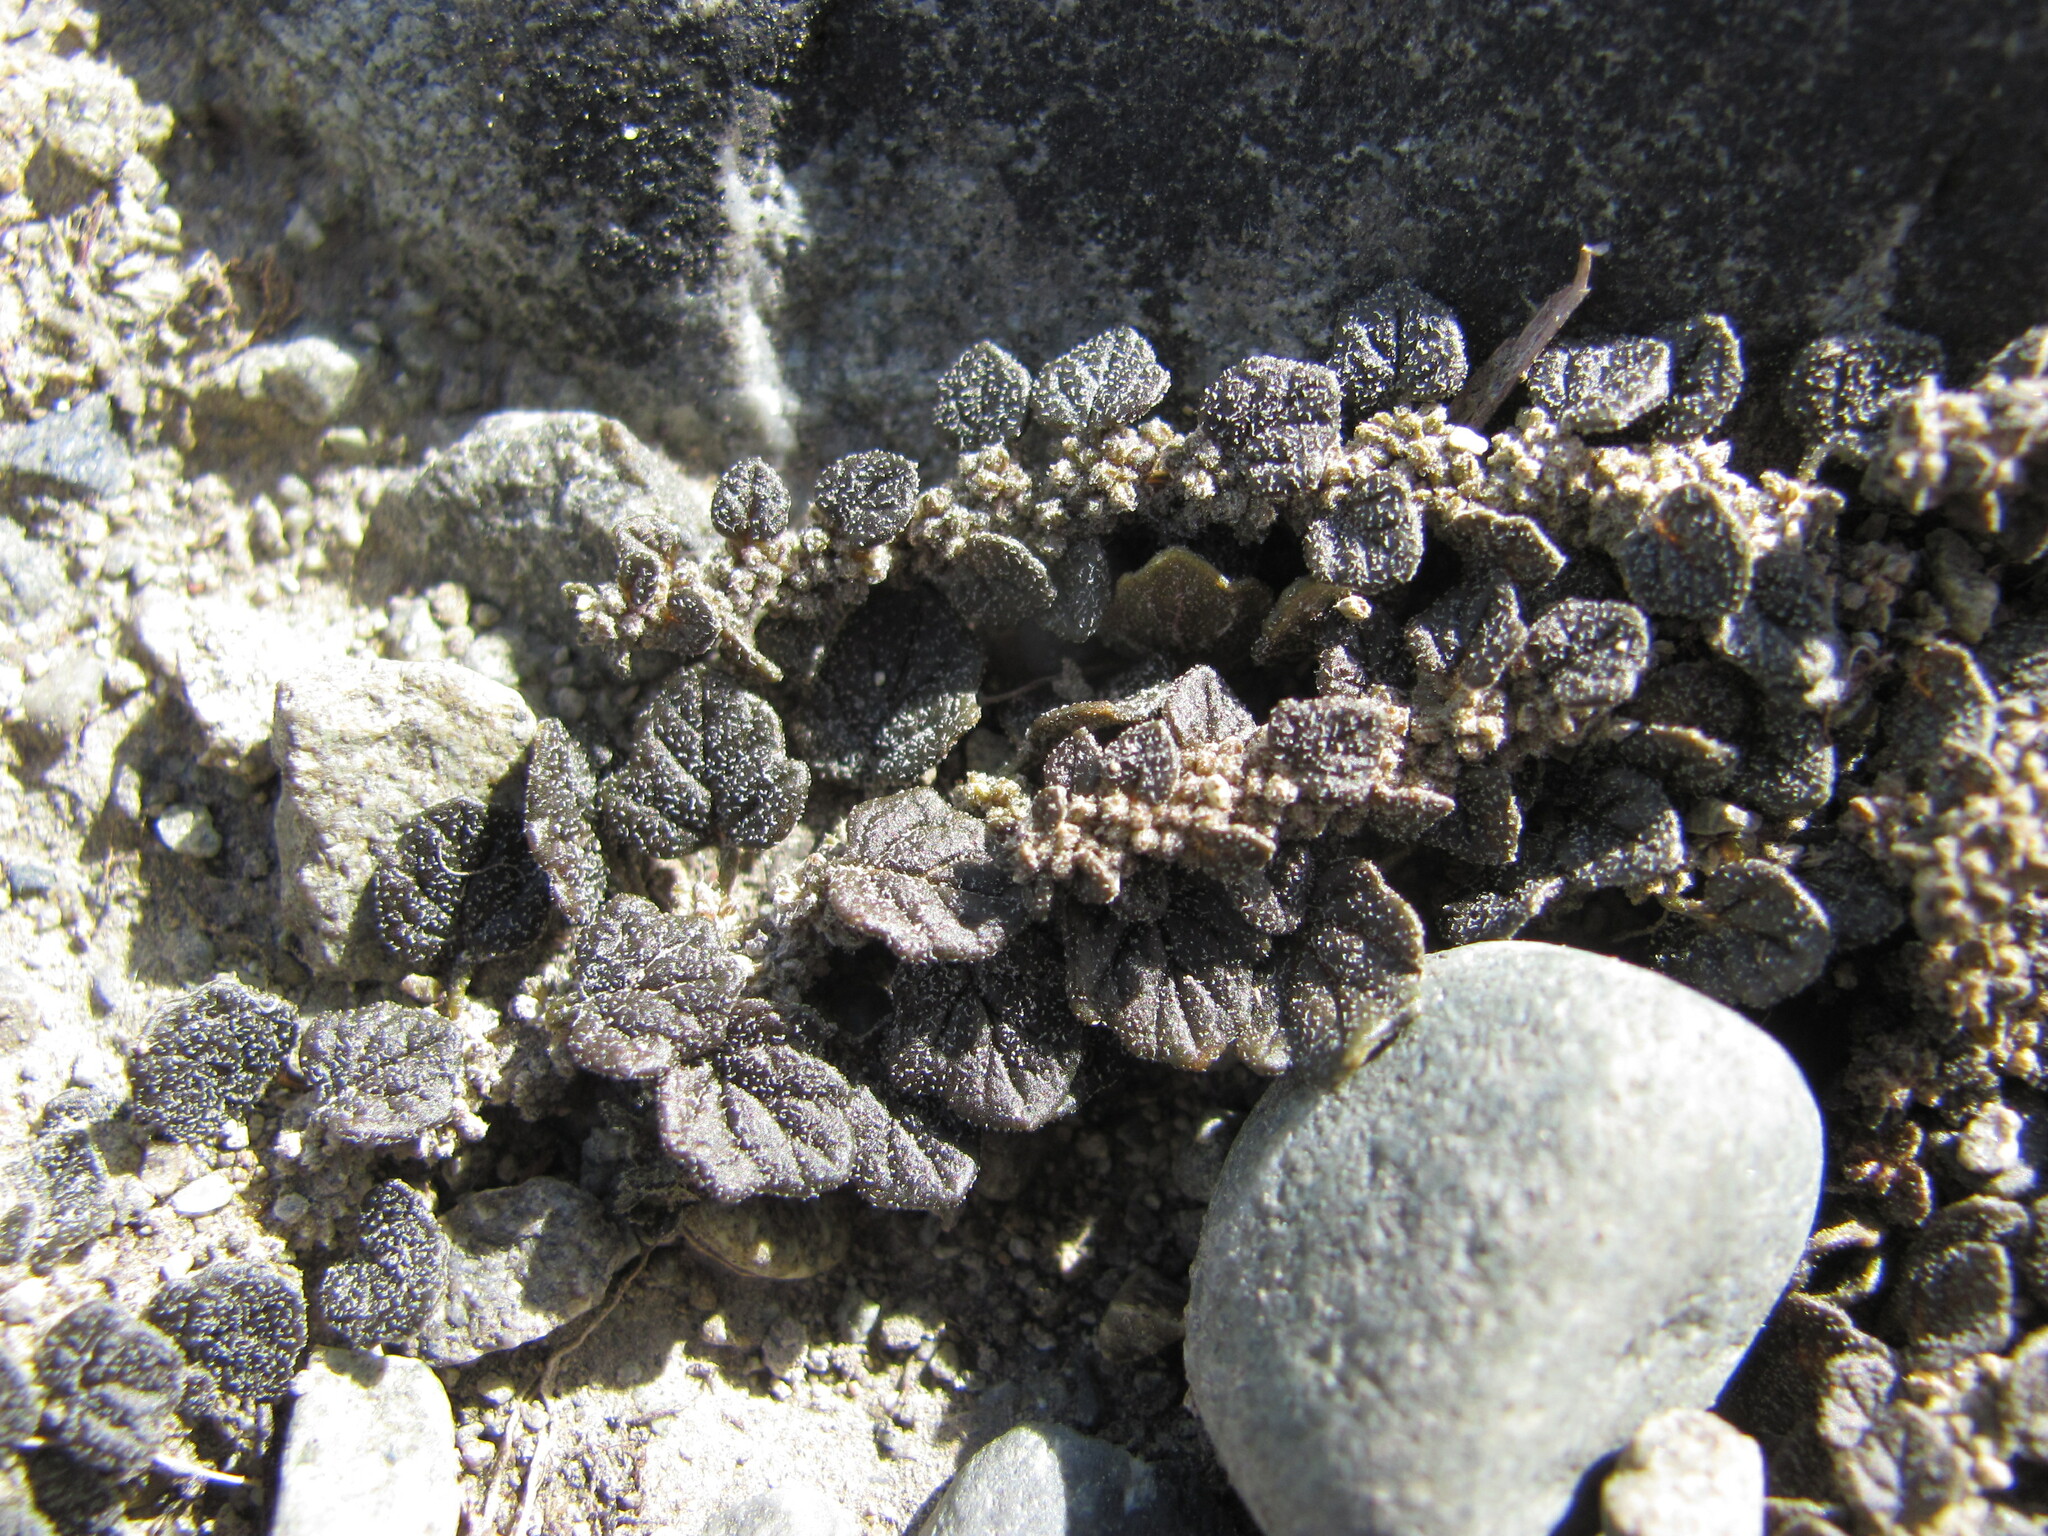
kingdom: Plantae
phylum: Tracheophyta
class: Magnoliopsida
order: Caryophyllales
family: Amaranthaceae
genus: Dysphania
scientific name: Dysphania pusilla
